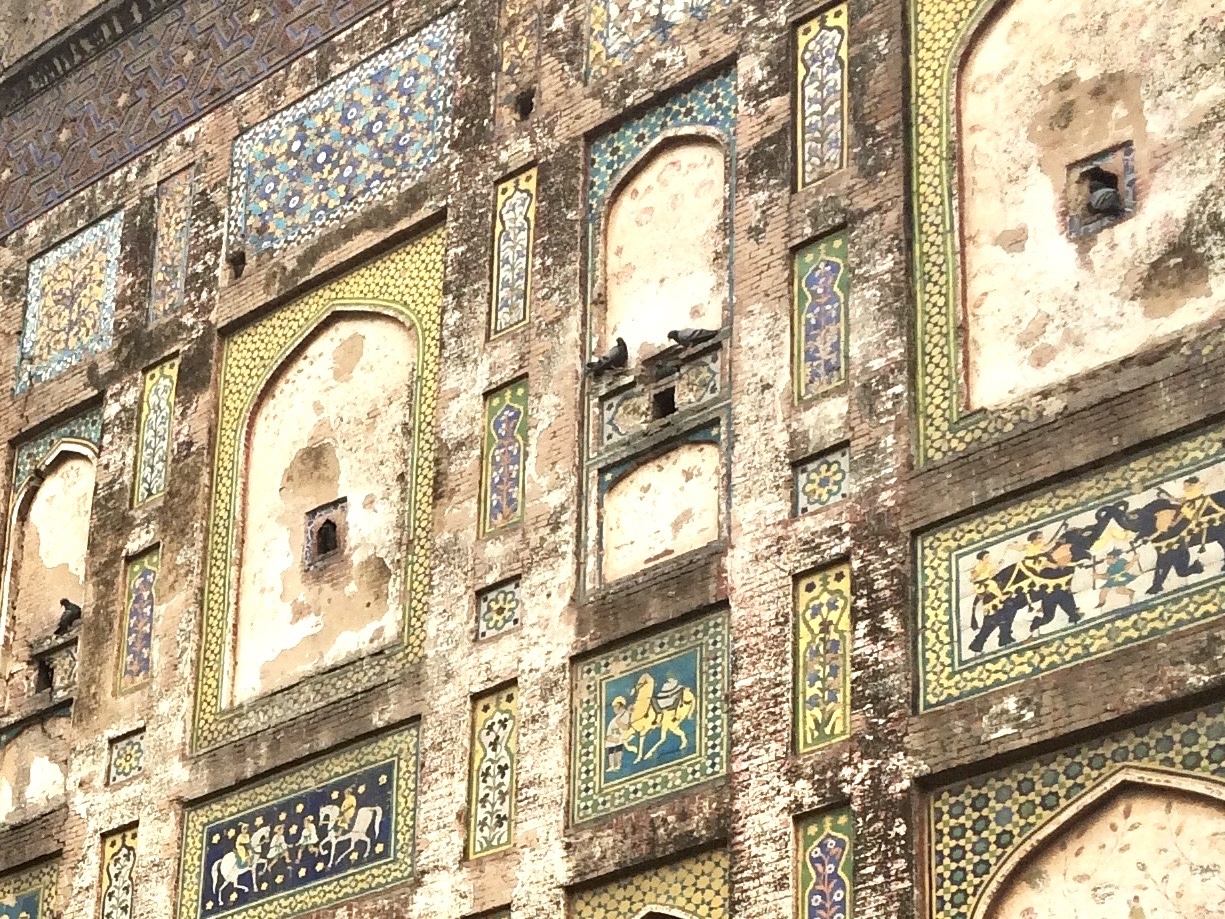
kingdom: Animalia
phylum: Chordata
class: Aves
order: Columbiformes
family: Columbidae
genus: Columba
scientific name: Columba livia
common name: Rock pigeon
